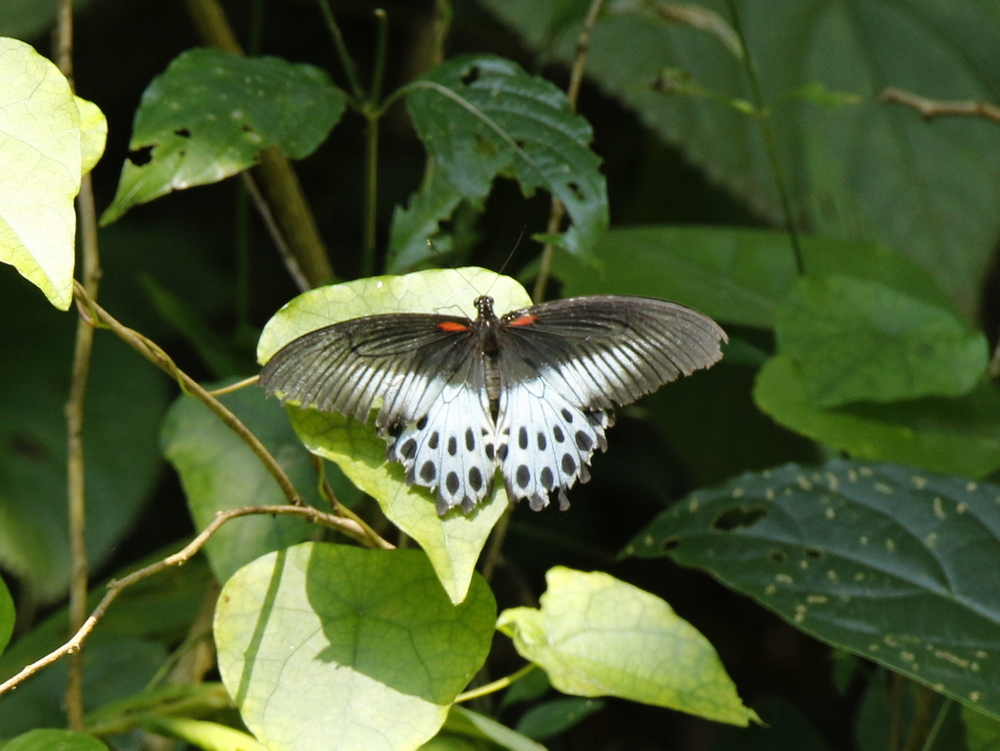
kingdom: Animalia
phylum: Arthropoda
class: Insecta
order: Lepidoptera
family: Papilionidae
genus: Papilio
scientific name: Papilio memnon
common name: Great mormon
